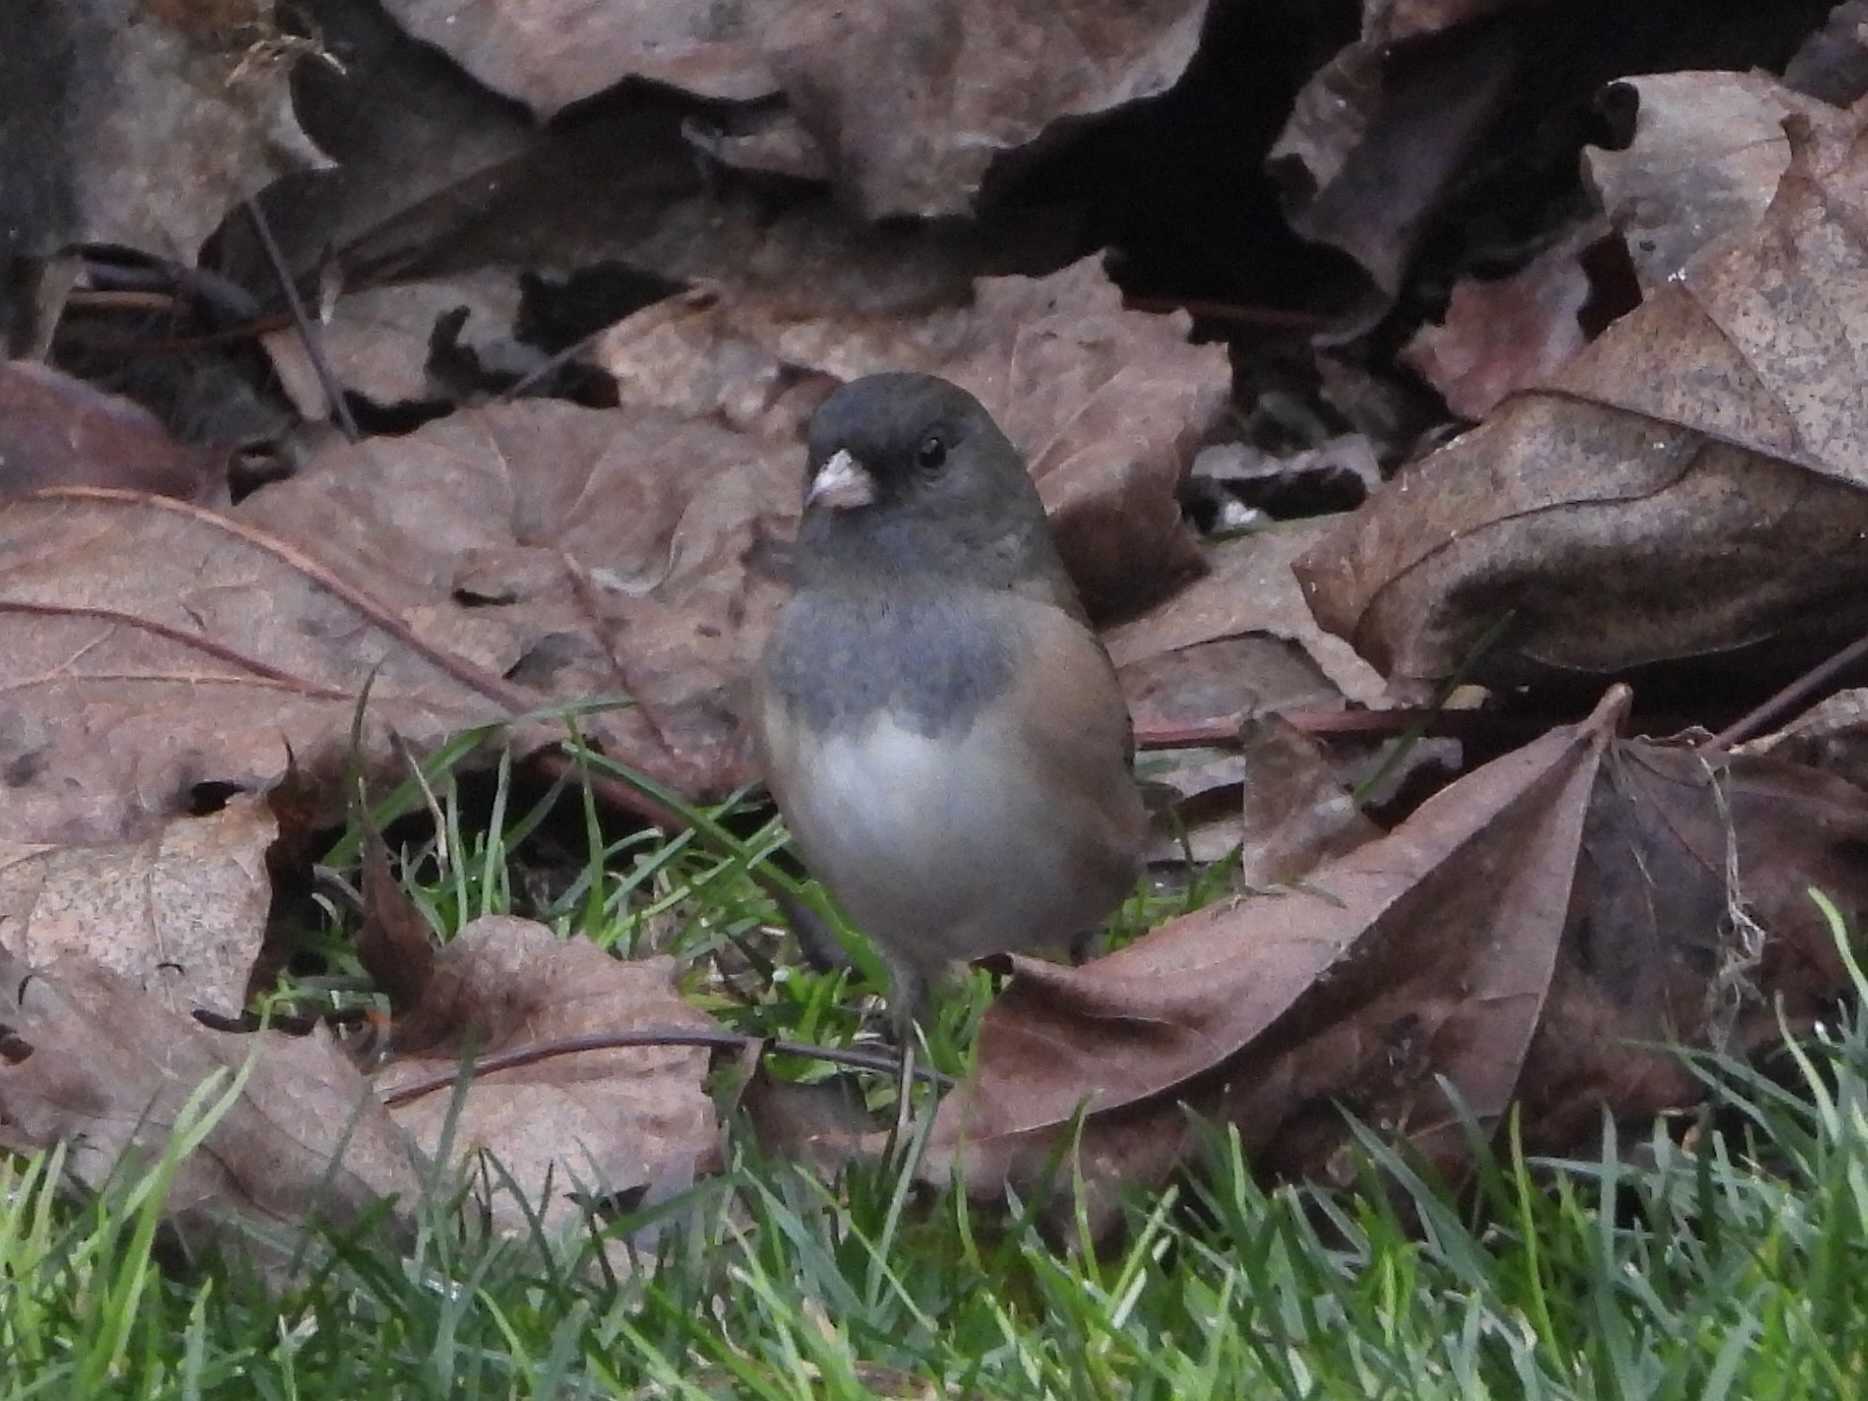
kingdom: Animalia
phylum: Chordata
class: Aves
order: Passeriformes
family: Passerellidae
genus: Junco
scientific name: Junco hyemalis
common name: Dark-eyed junco
